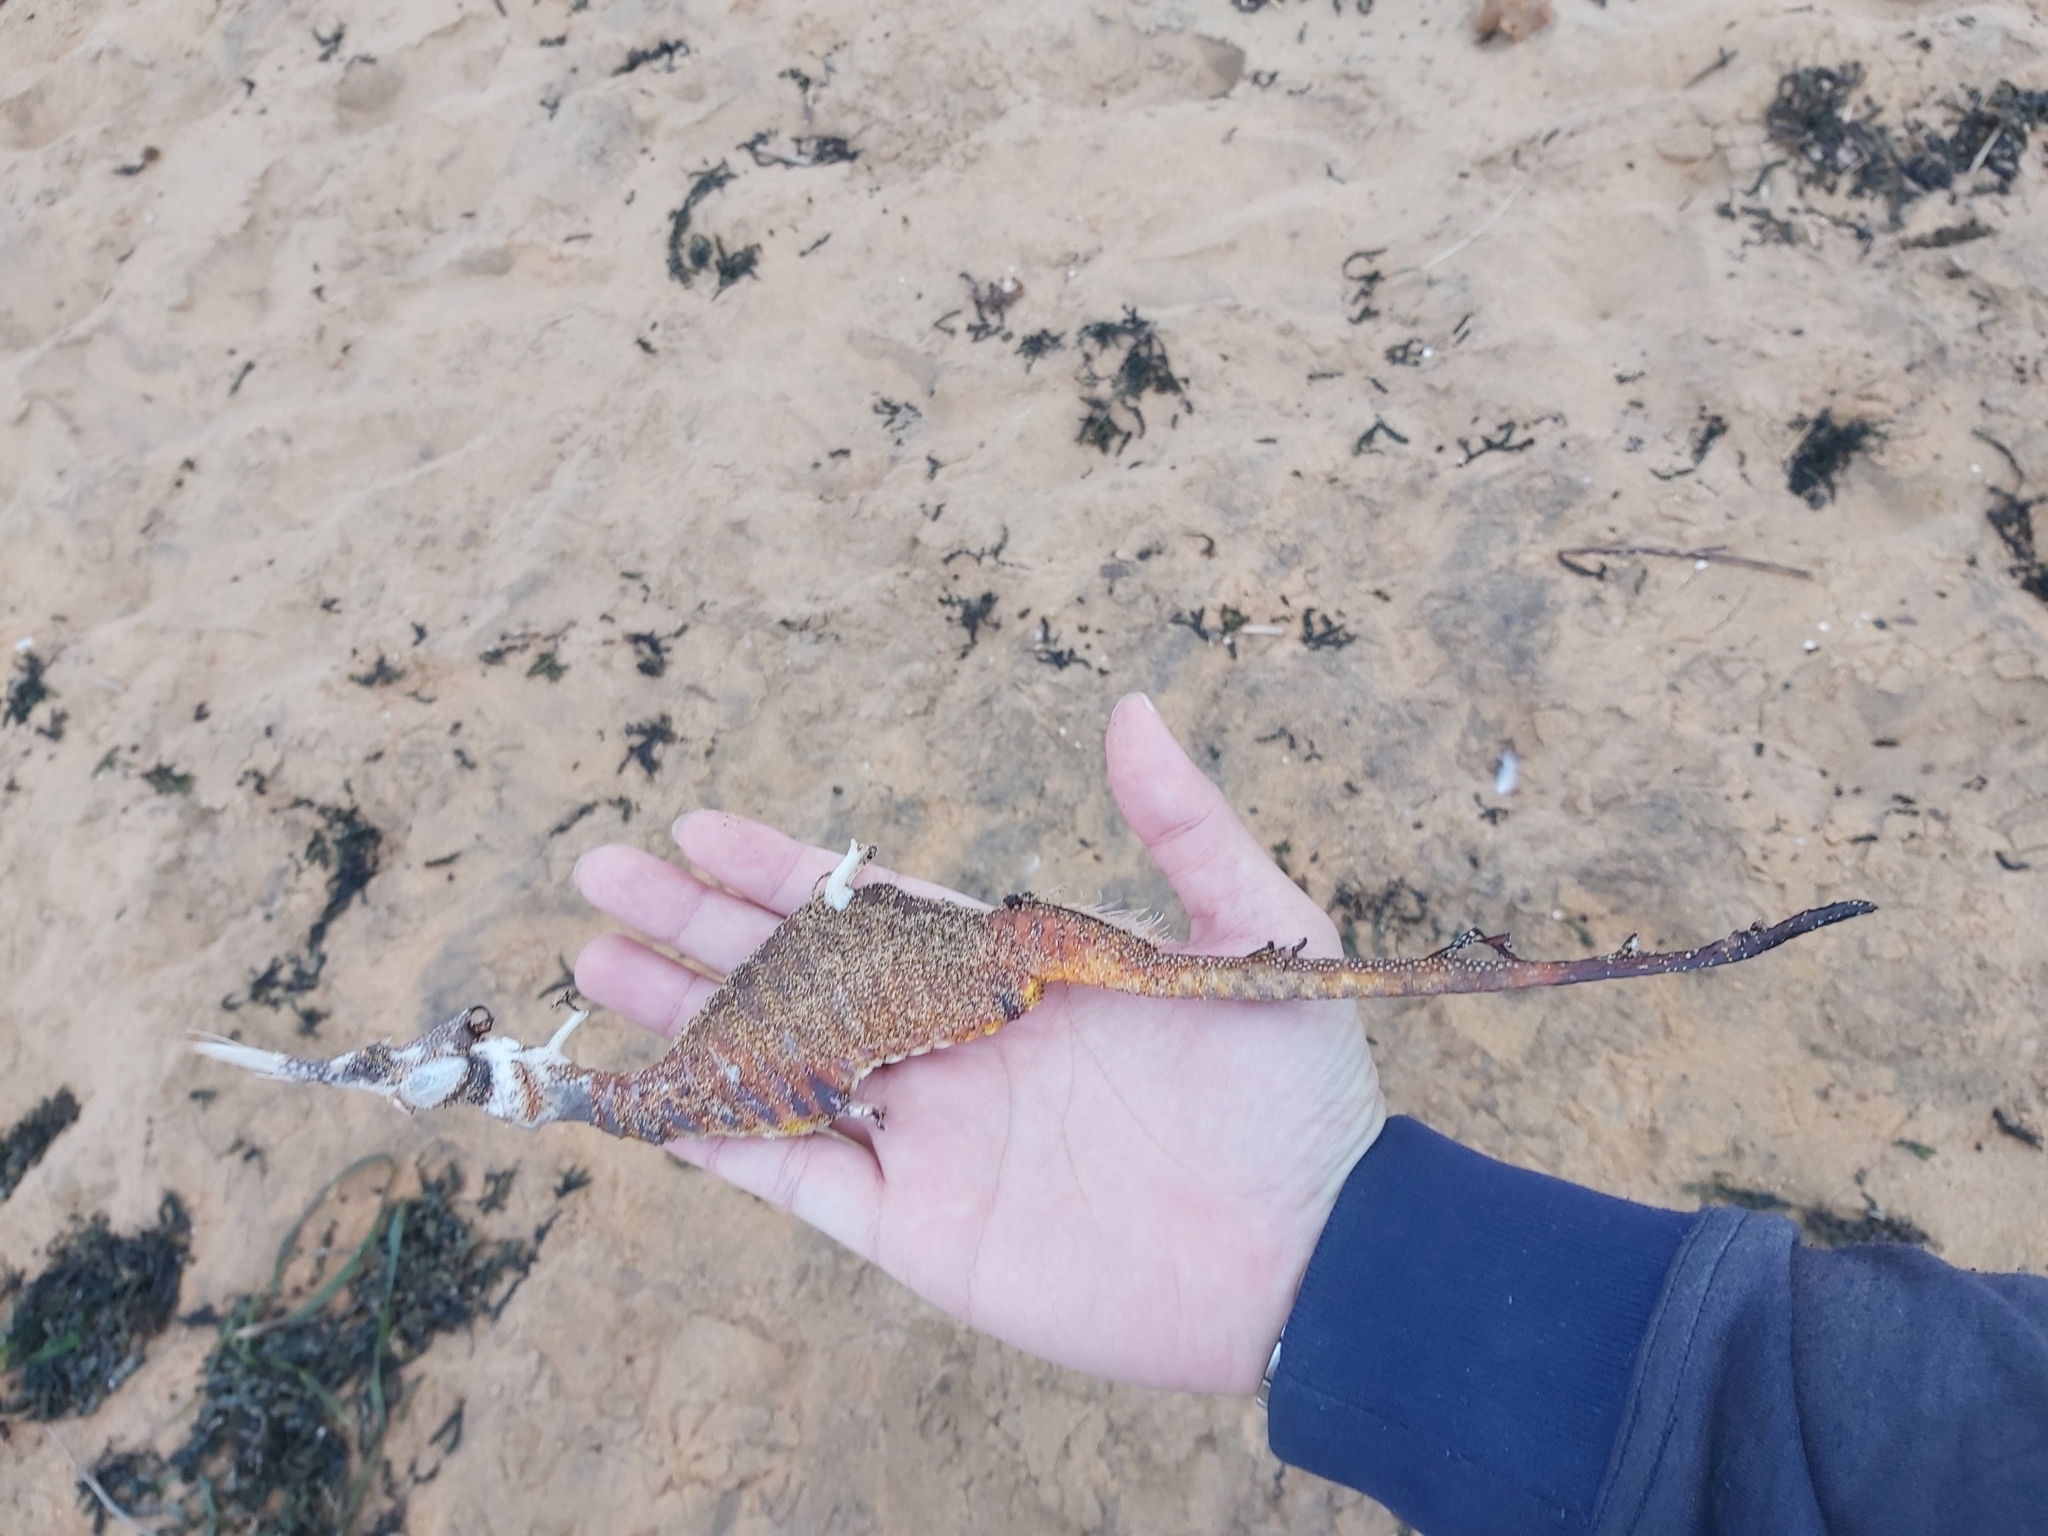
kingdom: Animalia
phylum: Chordata
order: Syngnathiformes
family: Syngnathidae
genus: Phyllopteryx
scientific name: Phyllopteryx taeniolatus
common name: Common seadragon
